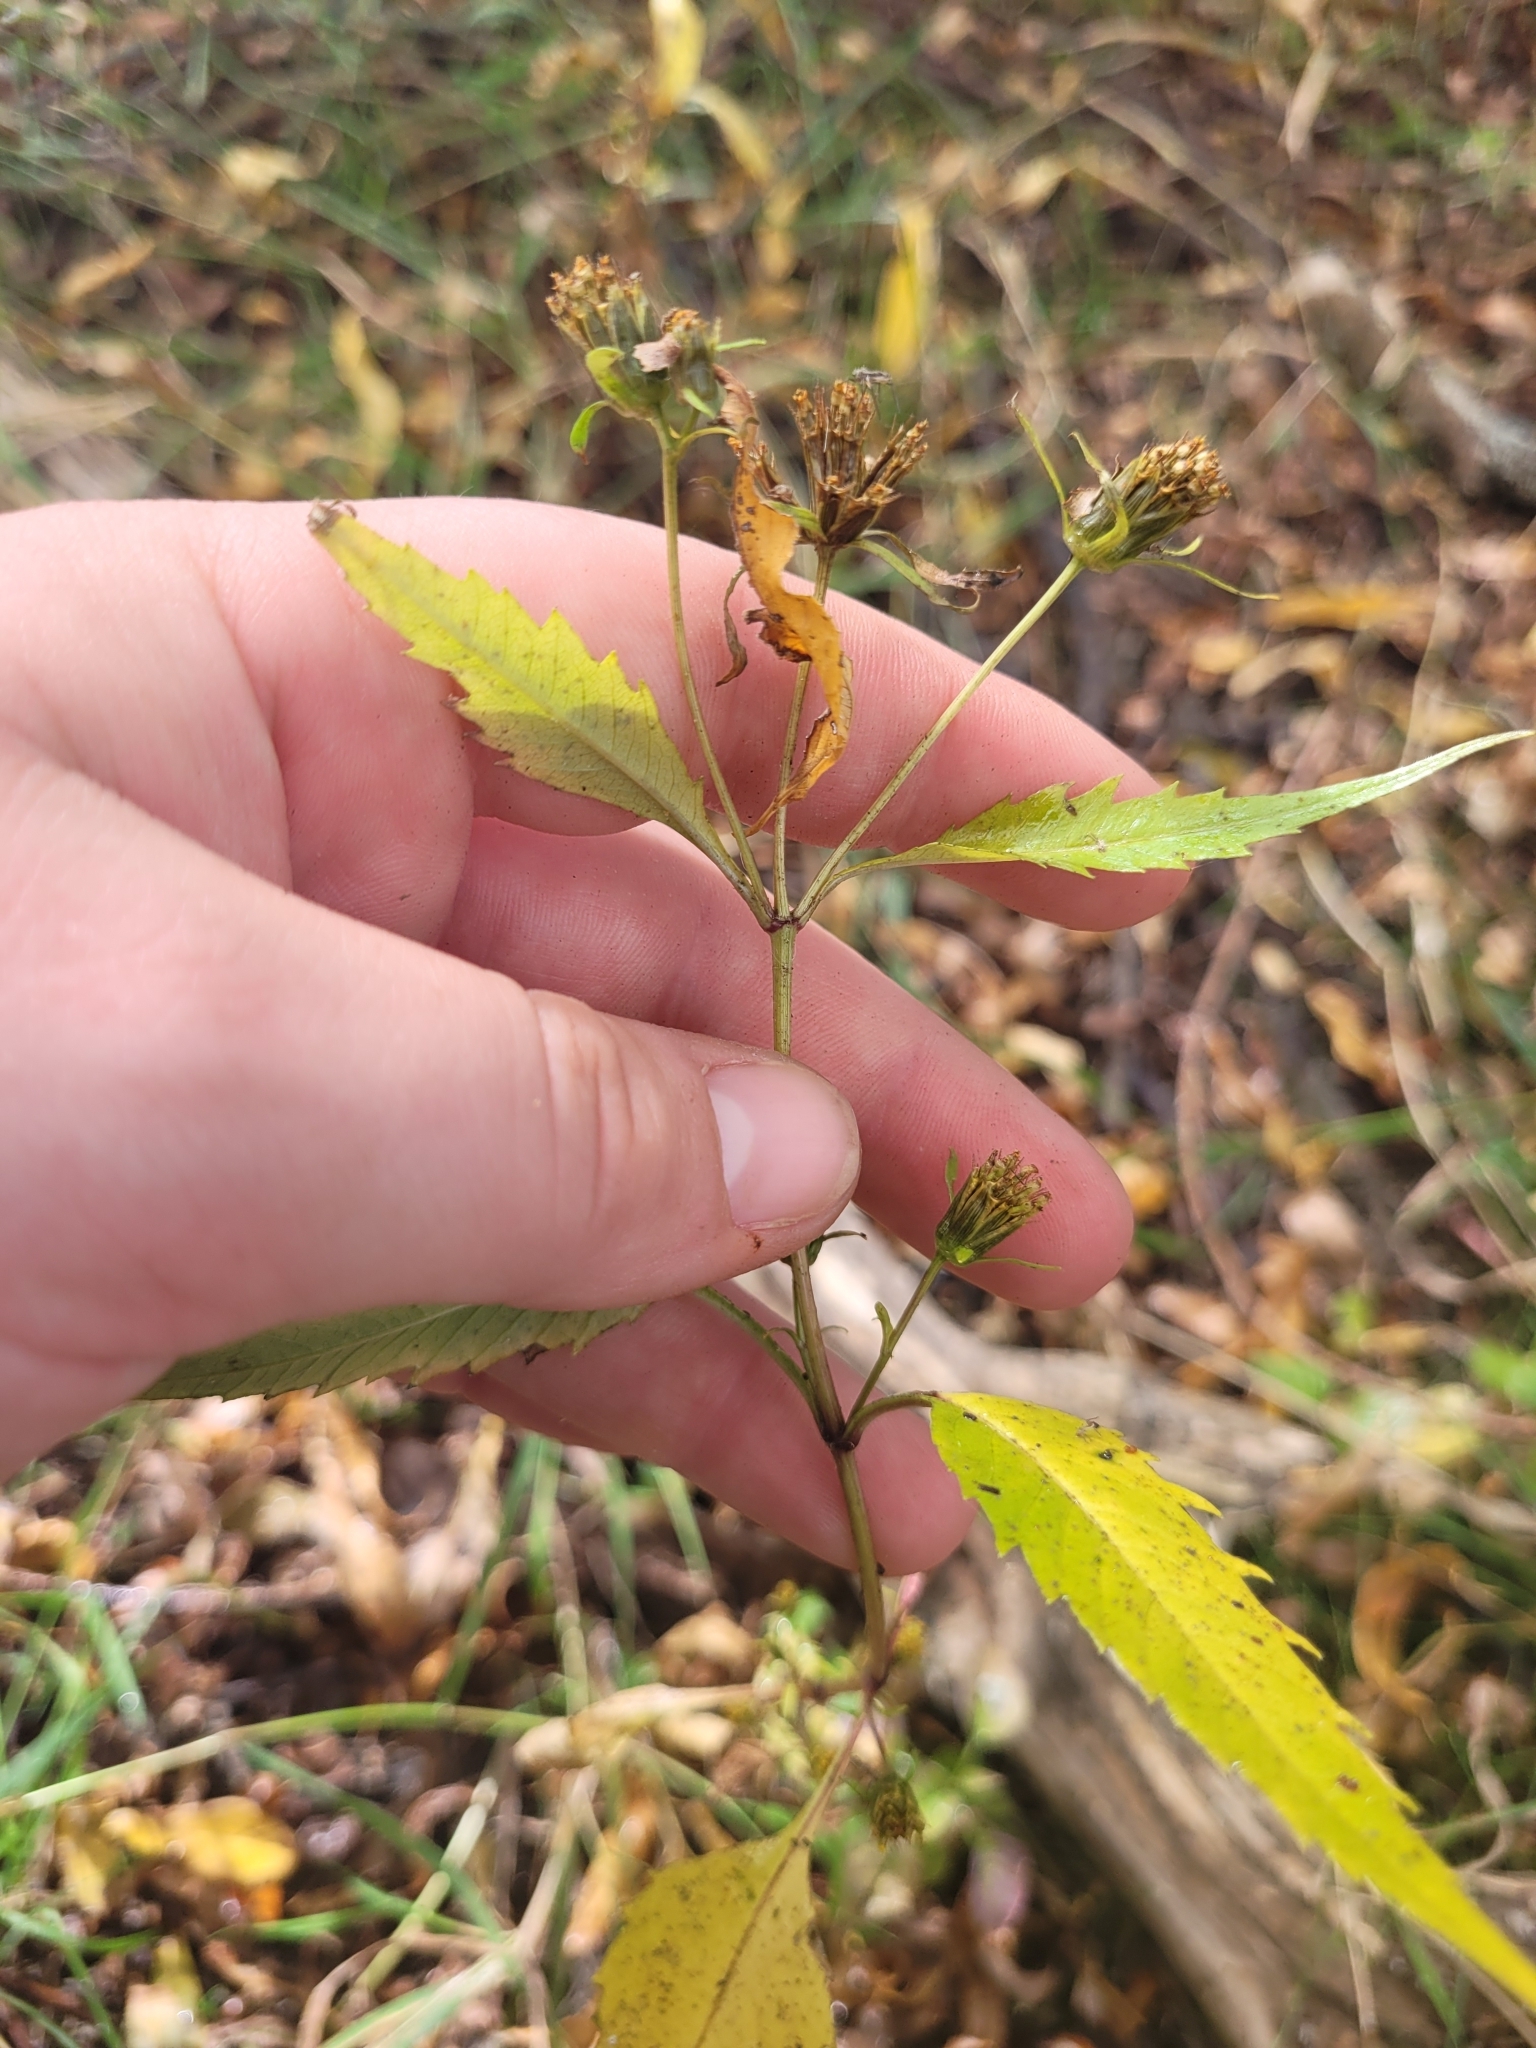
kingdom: Plantae
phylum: Tracheophyta
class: Magnoliopsida
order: Asterales
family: Asteraceae
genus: Bidens
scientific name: Bidens frondosa
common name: Beggarticks
